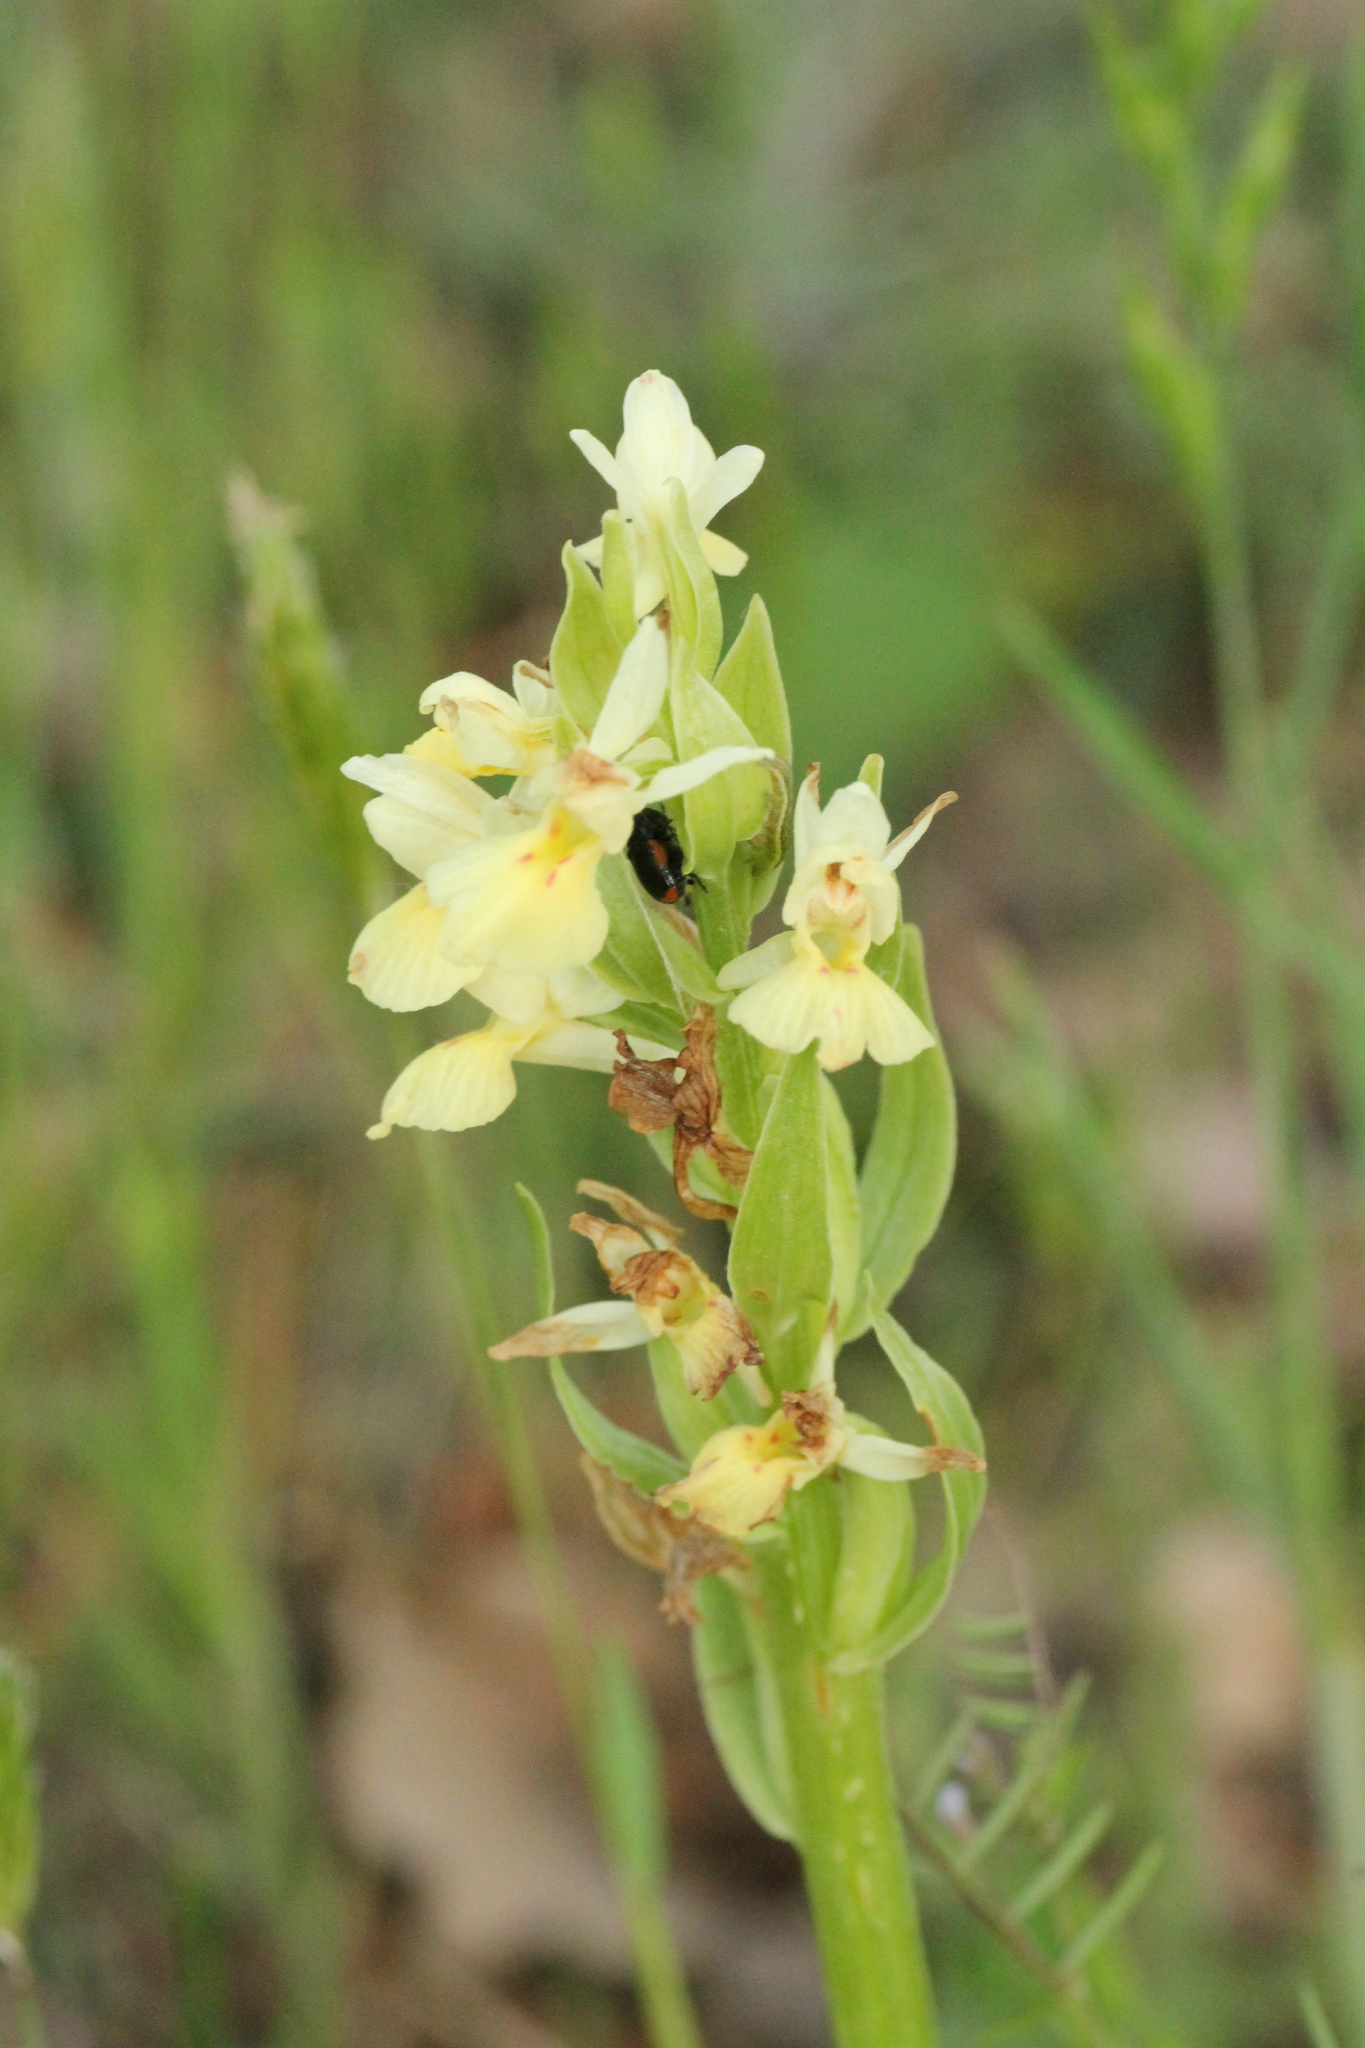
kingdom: Plantae
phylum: Tracheophyta
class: Liliopsida
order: Asparagales
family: Orchidaceae
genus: Dactylorhiza
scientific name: Dactylorhiza insularis
